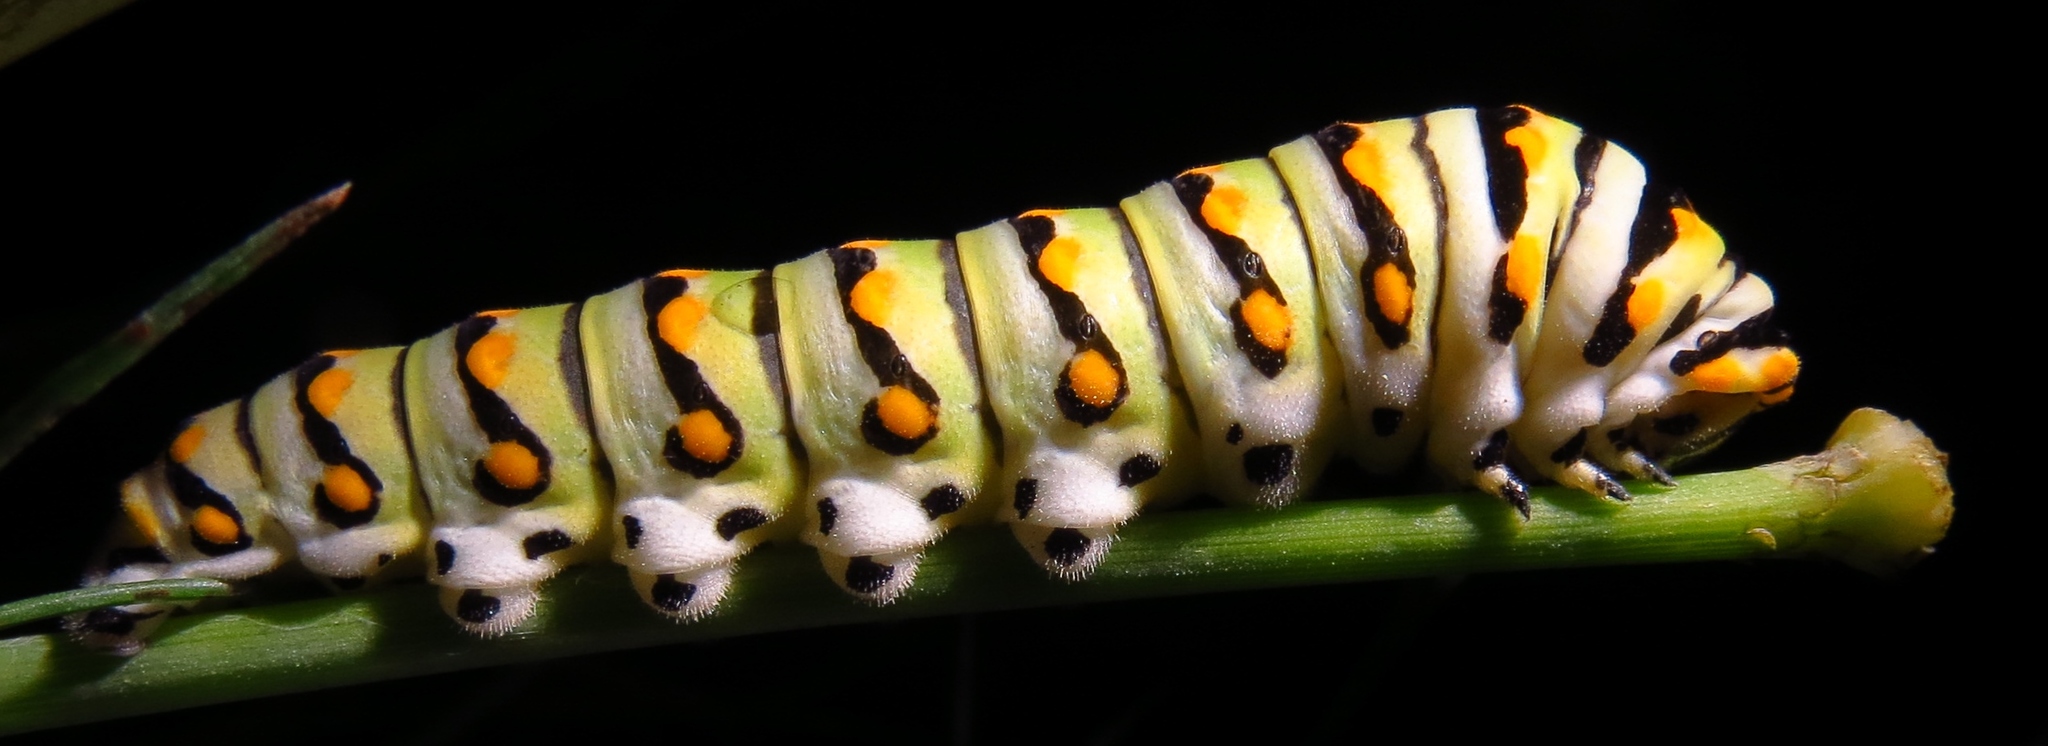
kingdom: Animalia
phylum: Arthropoda
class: Insecta
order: Lepidoptera
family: Papilionidae
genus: Papilio
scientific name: Papilio polyxenes
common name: Black swallowtail
